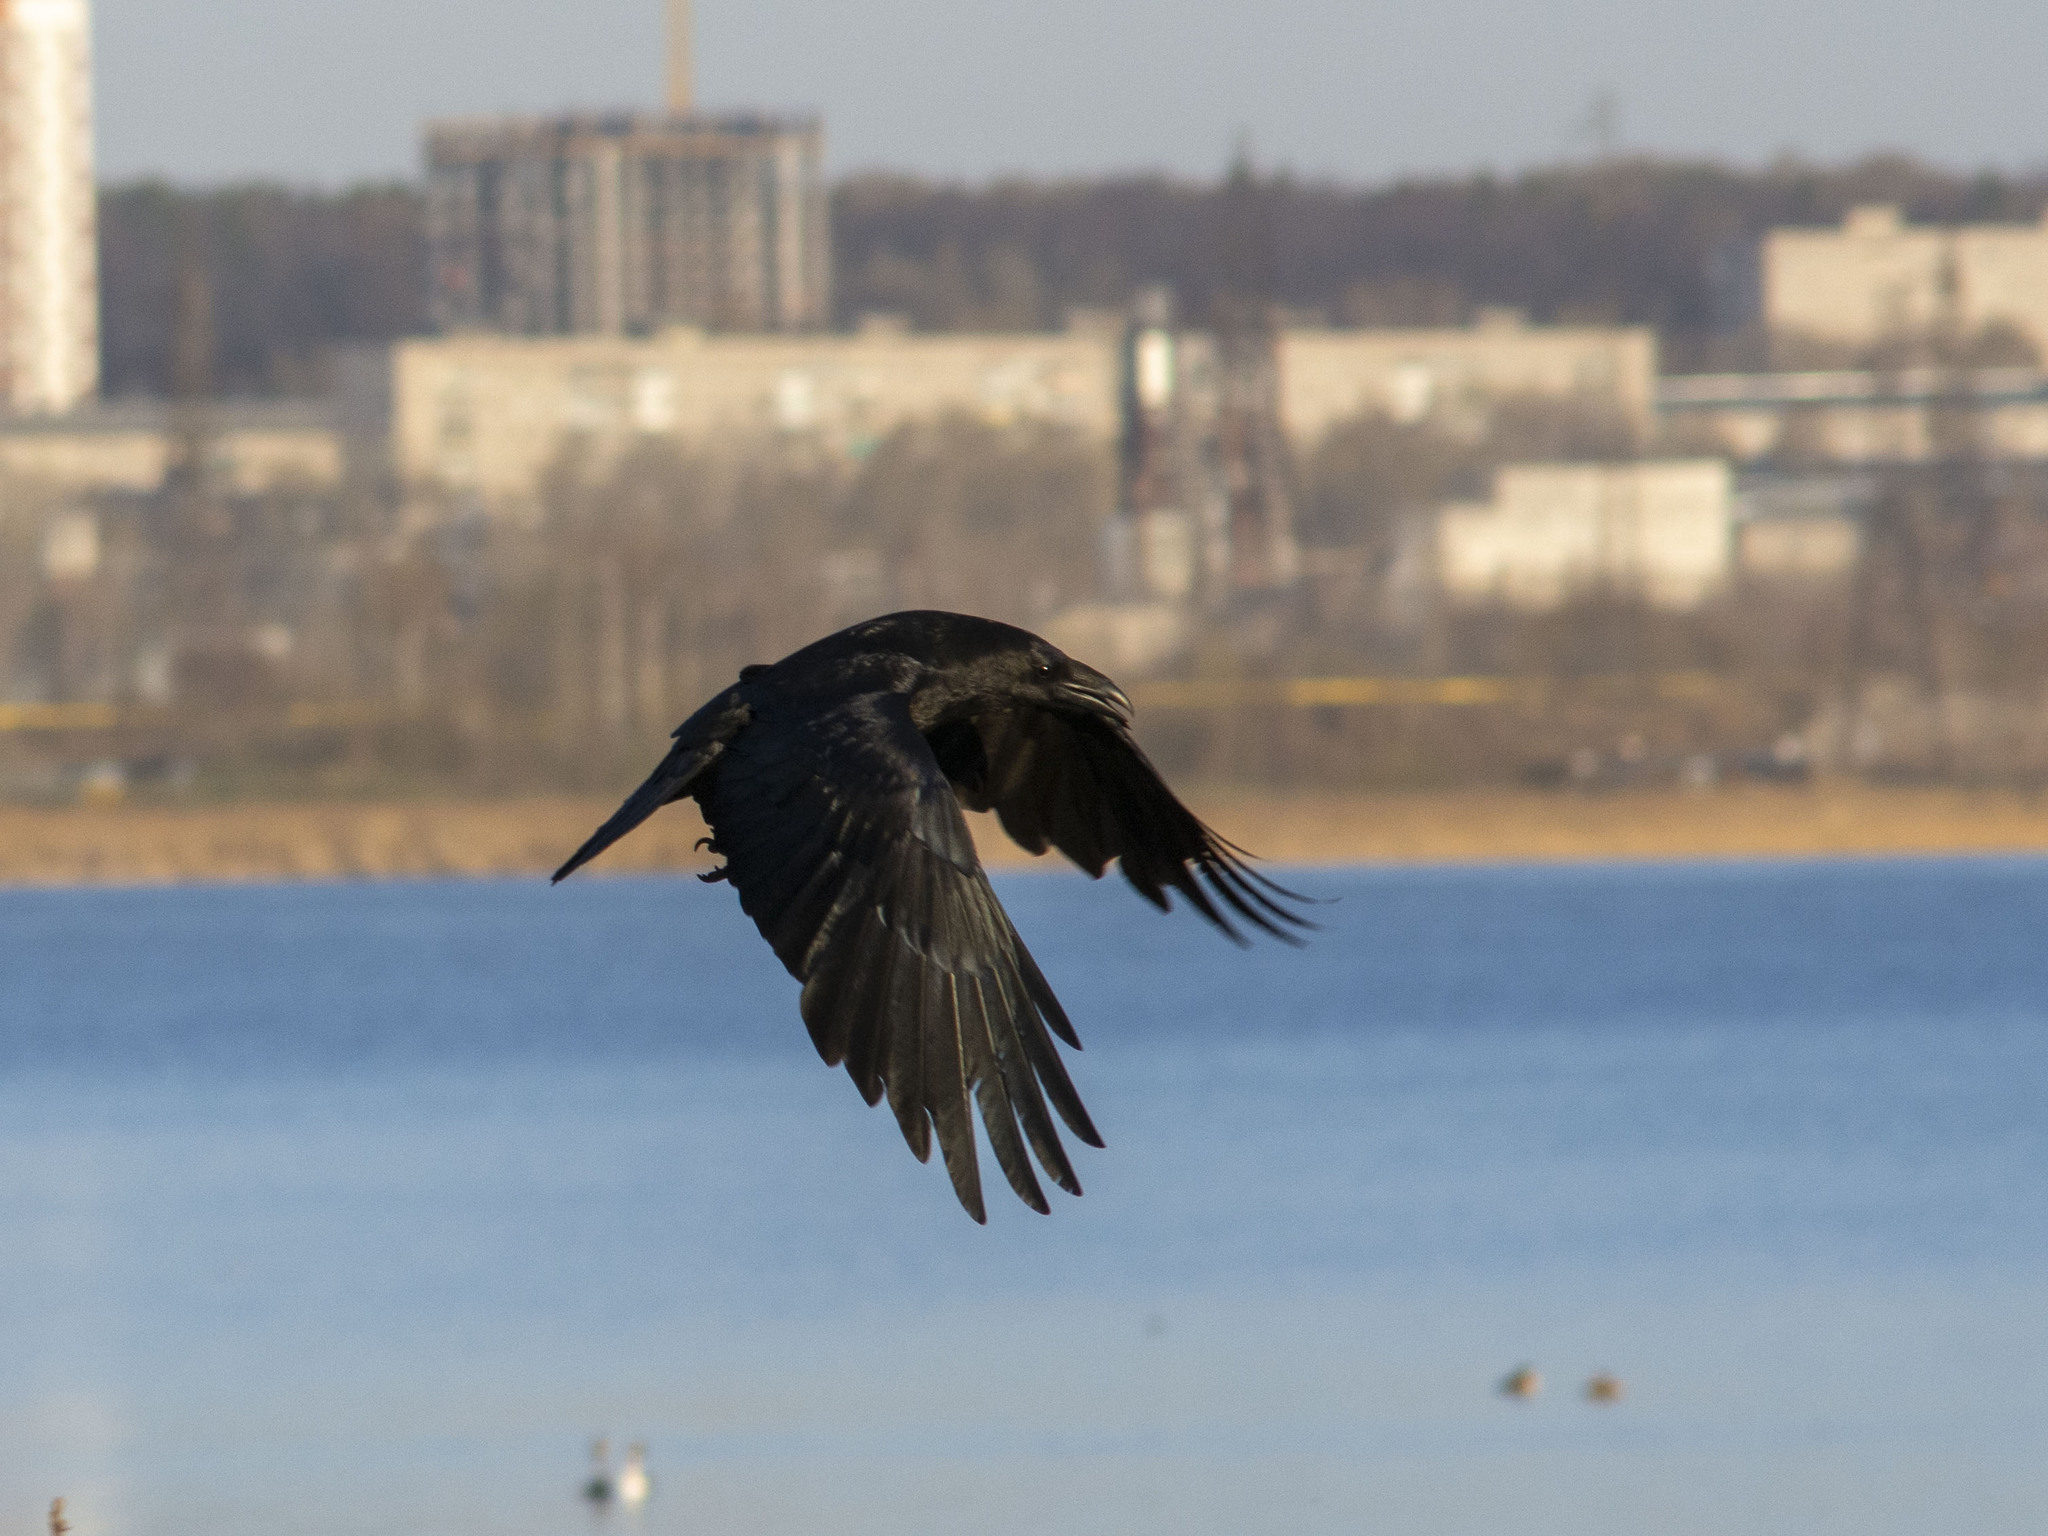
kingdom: Animalia
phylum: Chordata
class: Aves
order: Passeriformes
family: Corvidae
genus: Corvus
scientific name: Corvus corax
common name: Common raven
